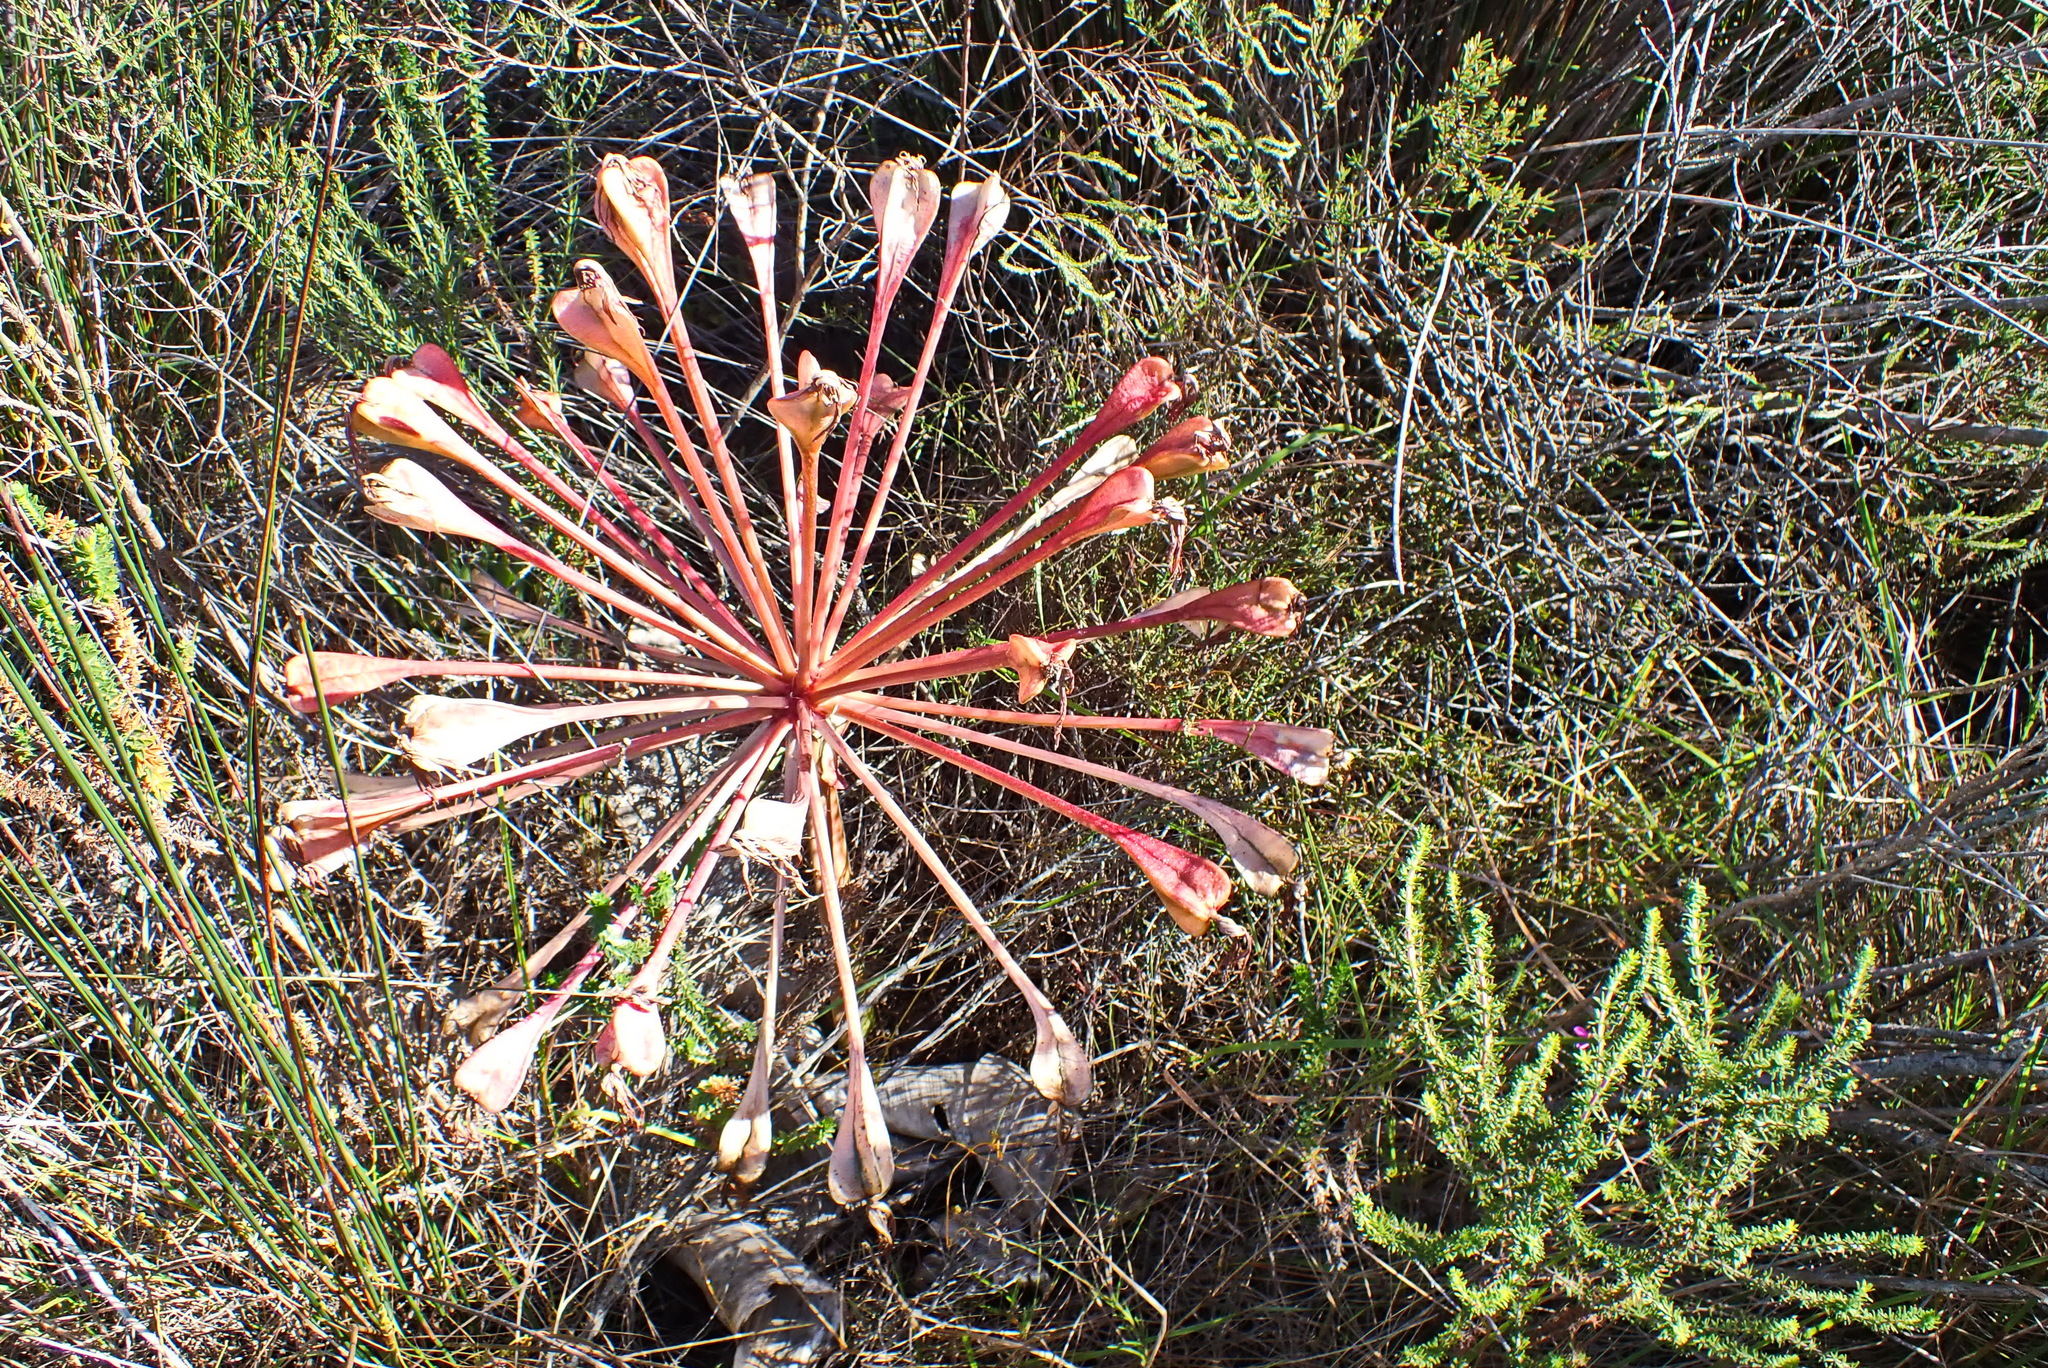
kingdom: Plantae
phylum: Tracheophyta
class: Liliopsida
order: Asparagales
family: Amaryllidaceae
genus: Brunsvigia
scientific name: Brunsvigia orientalis
